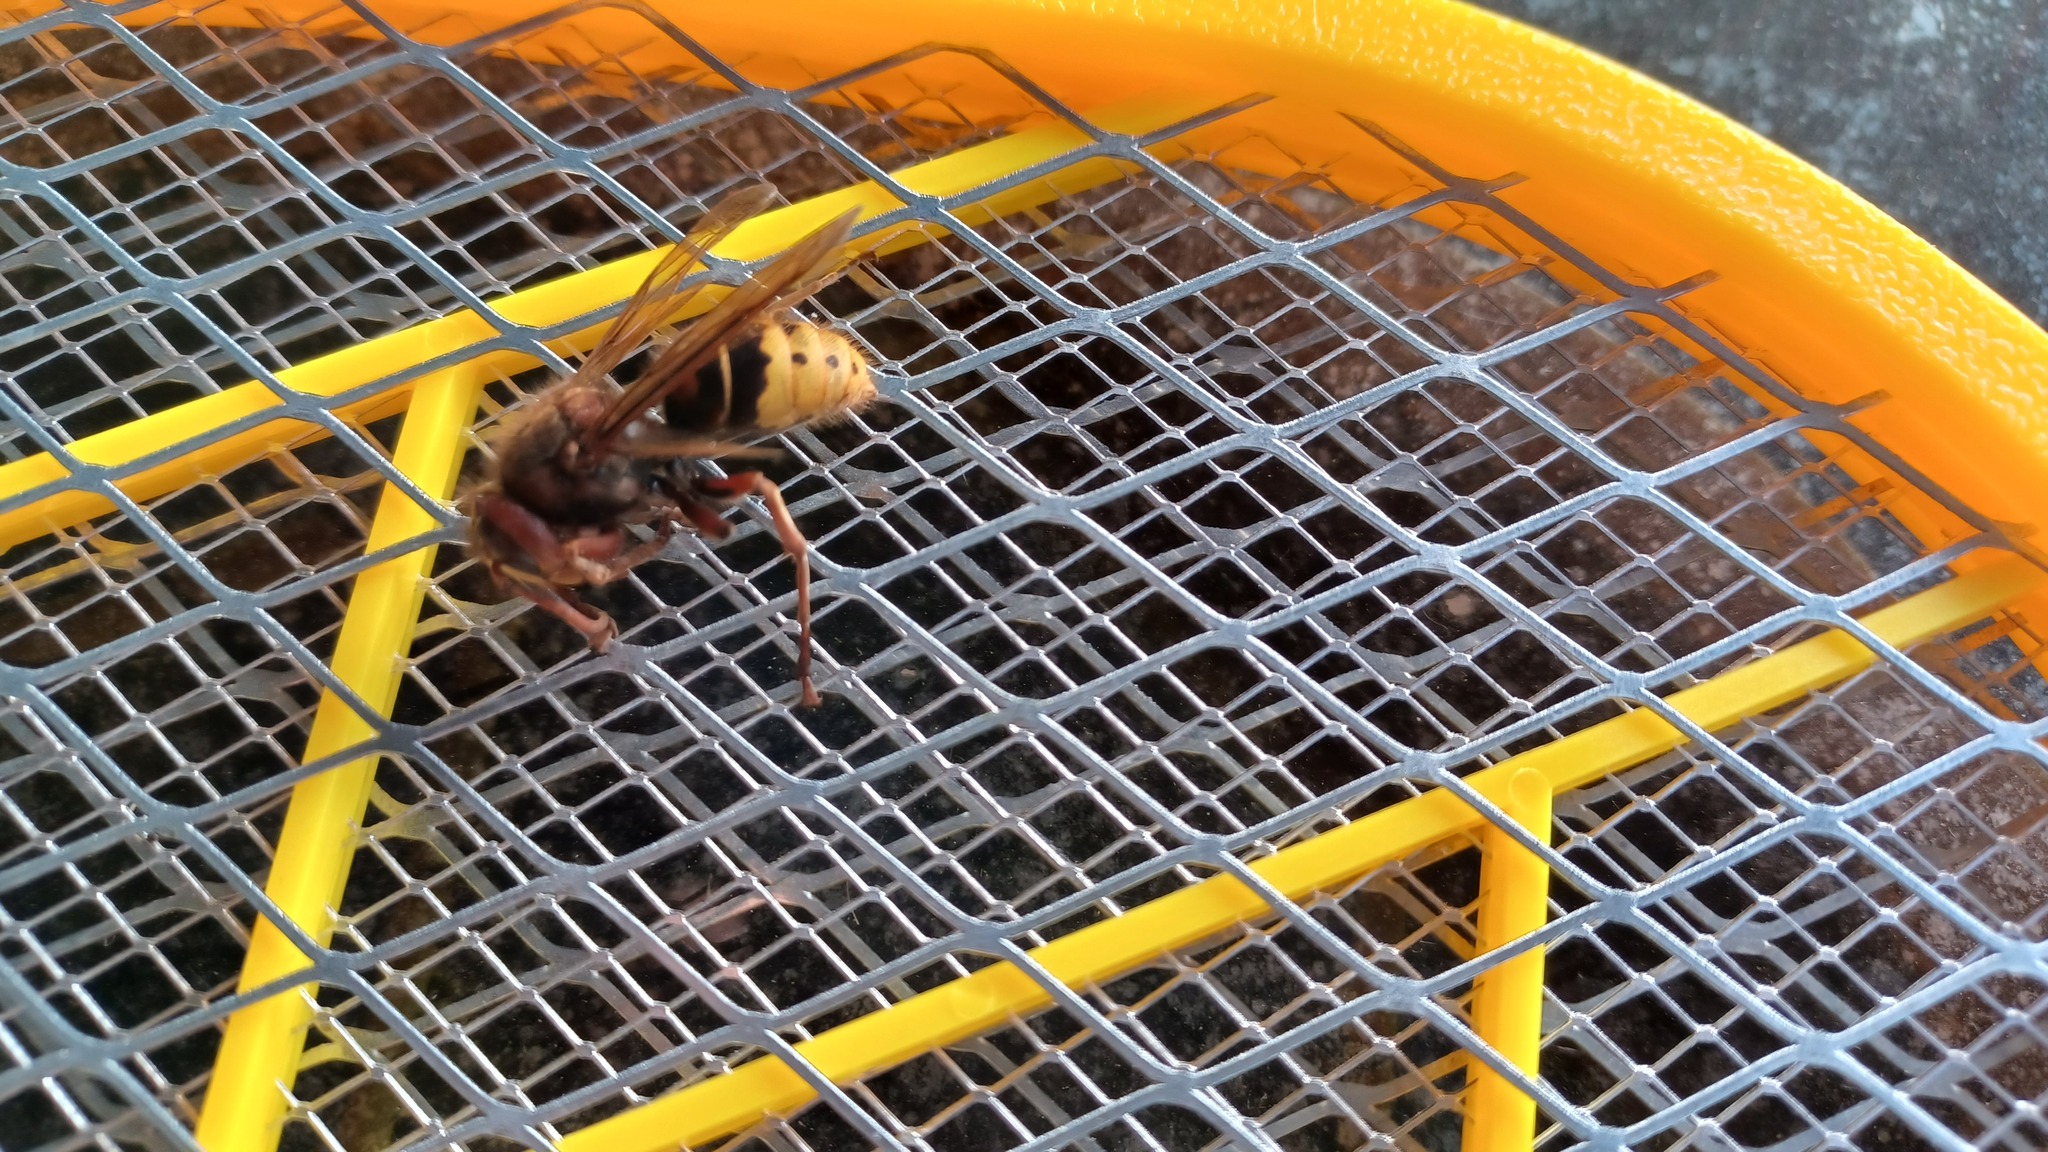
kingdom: Animalia
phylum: Arthropoda
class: Insecta
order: Hymenoptera
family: Vespidae
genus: Vespa
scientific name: Vespa crabro
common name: Hornet
